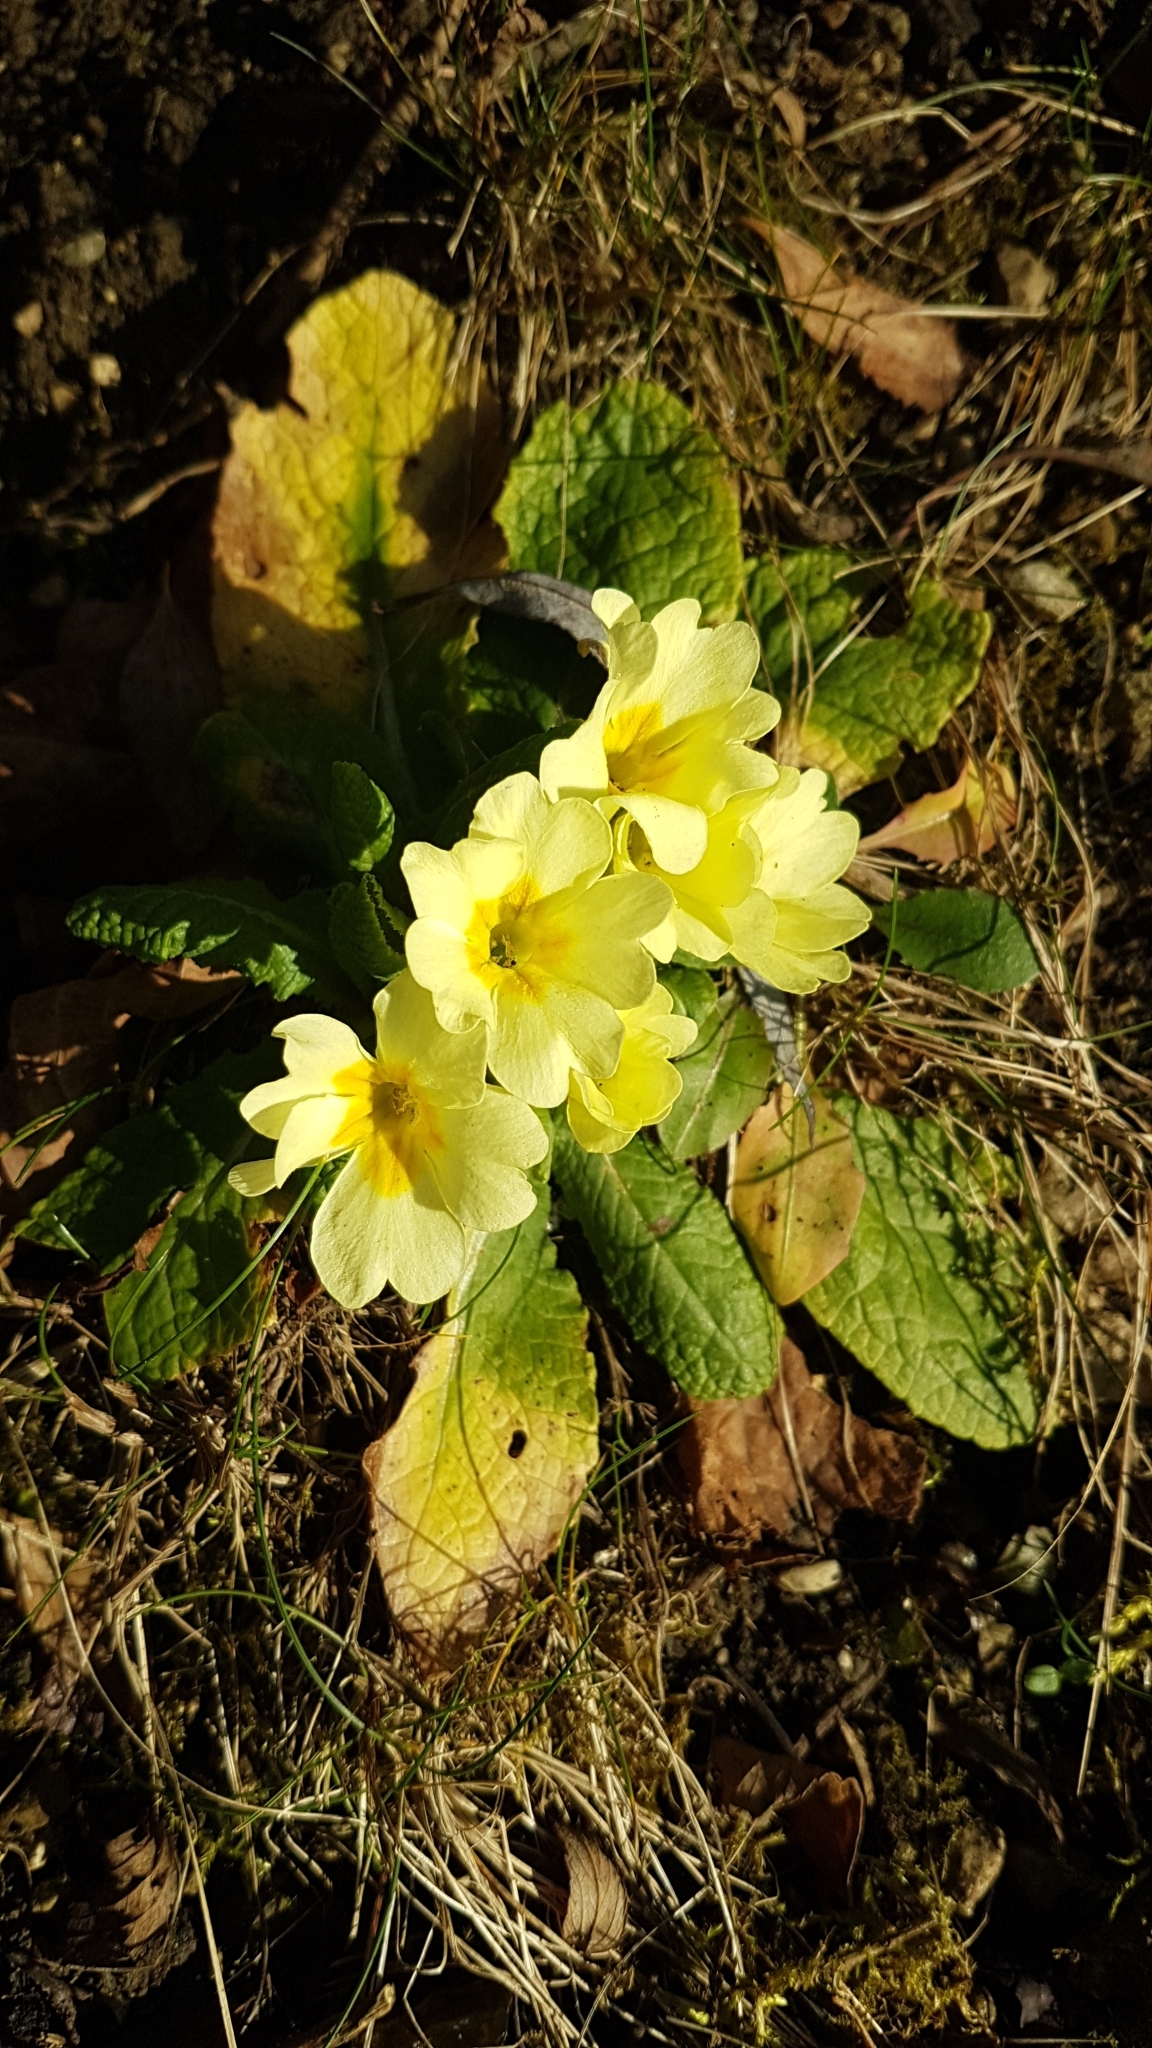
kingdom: Plantae
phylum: Tracheophyta
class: Magnoliopsida
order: Ericales
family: Primulaceae
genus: Primula
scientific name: Primula vulgaris
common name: Primrose
